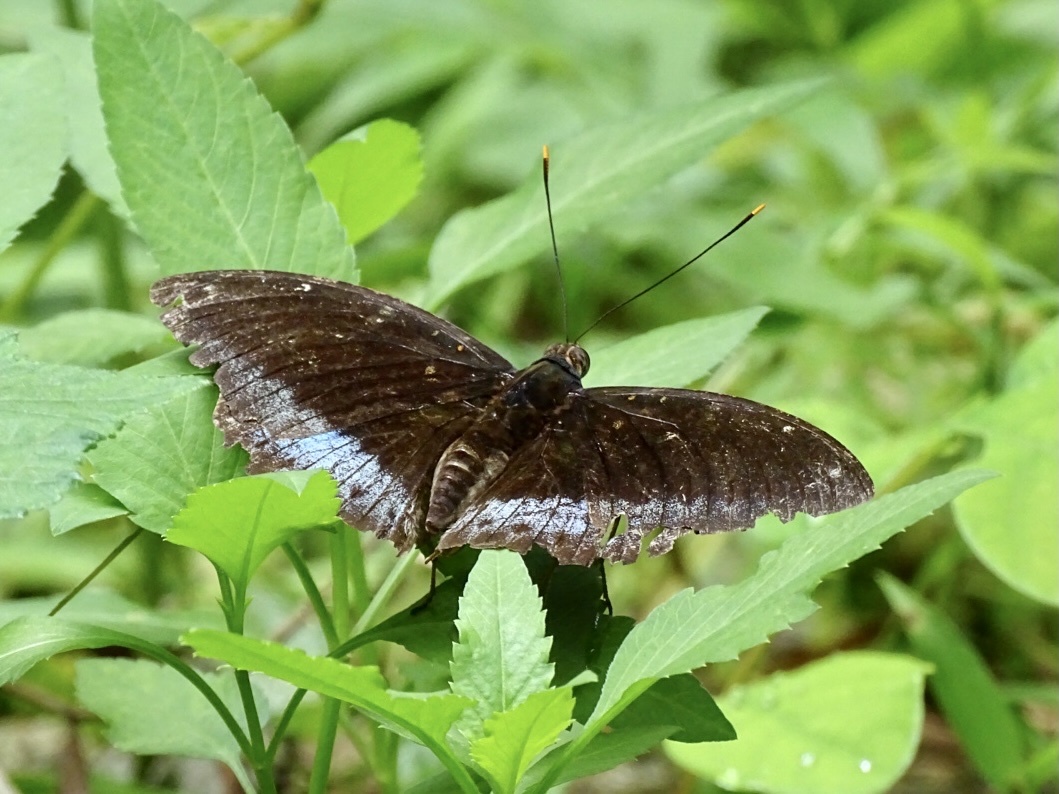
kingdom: Animalia
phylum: Arthropoda
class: Insecta
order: Lepidoptera
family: Nymphalidae
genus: Lexias
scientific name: Lexias pardalis
